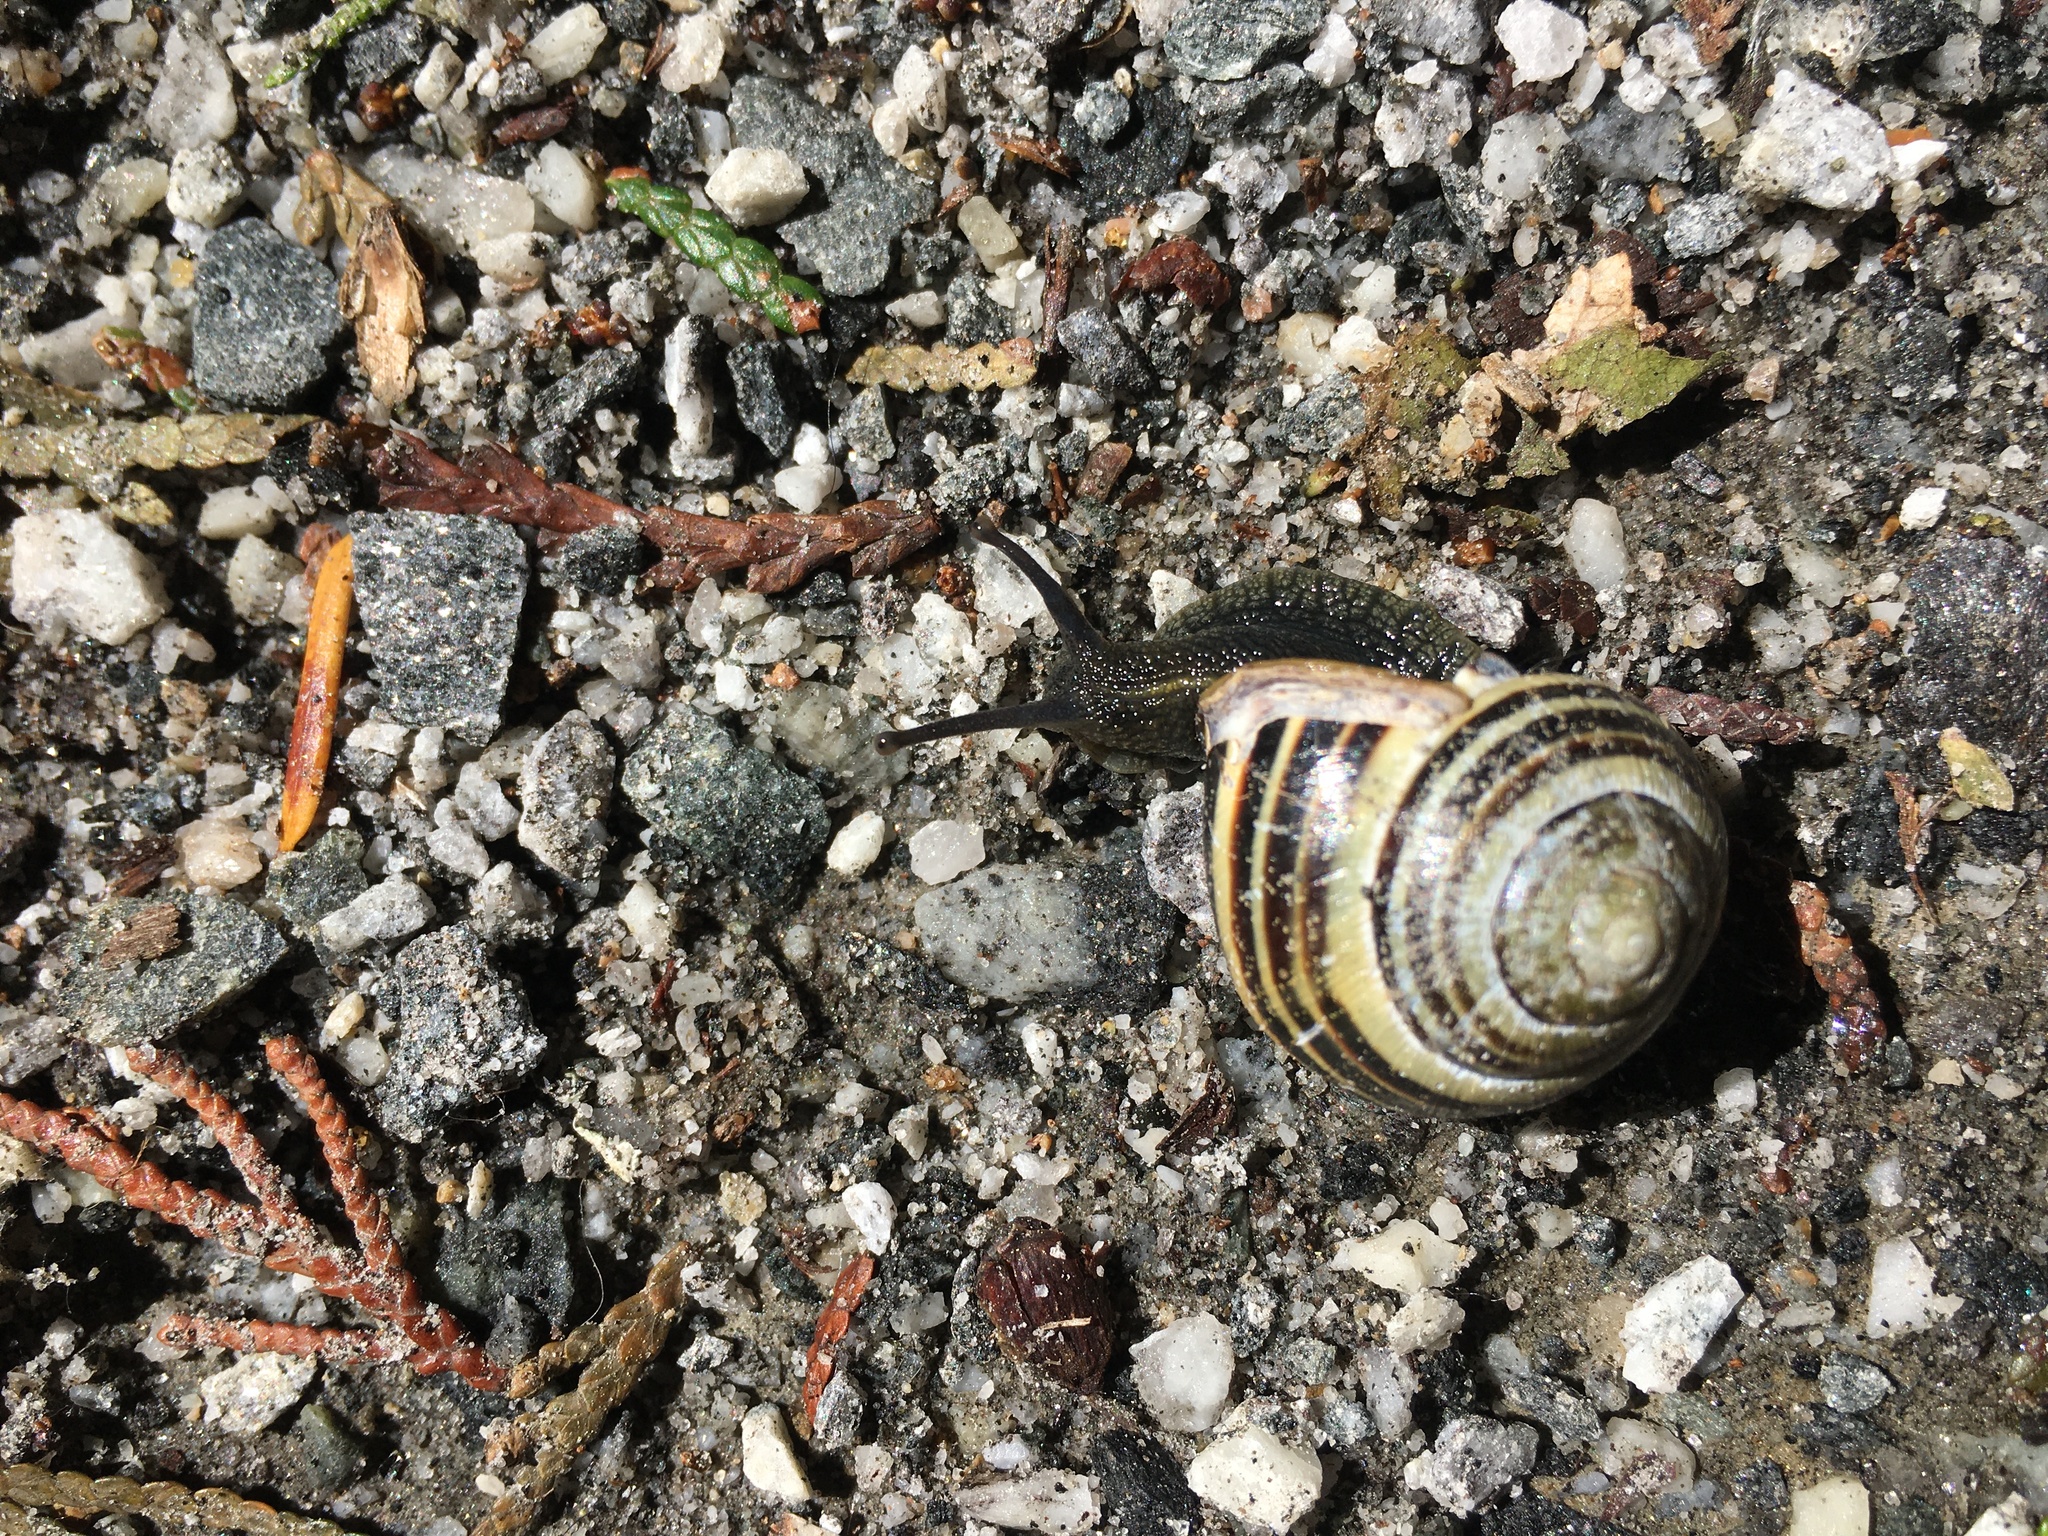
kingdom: Animalia
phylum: Mollusca
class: Gastropoda
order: Stylommatophora
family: Helicidae
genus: Cepaea
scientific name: Cepaea nemoralis
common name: Grovesnail
